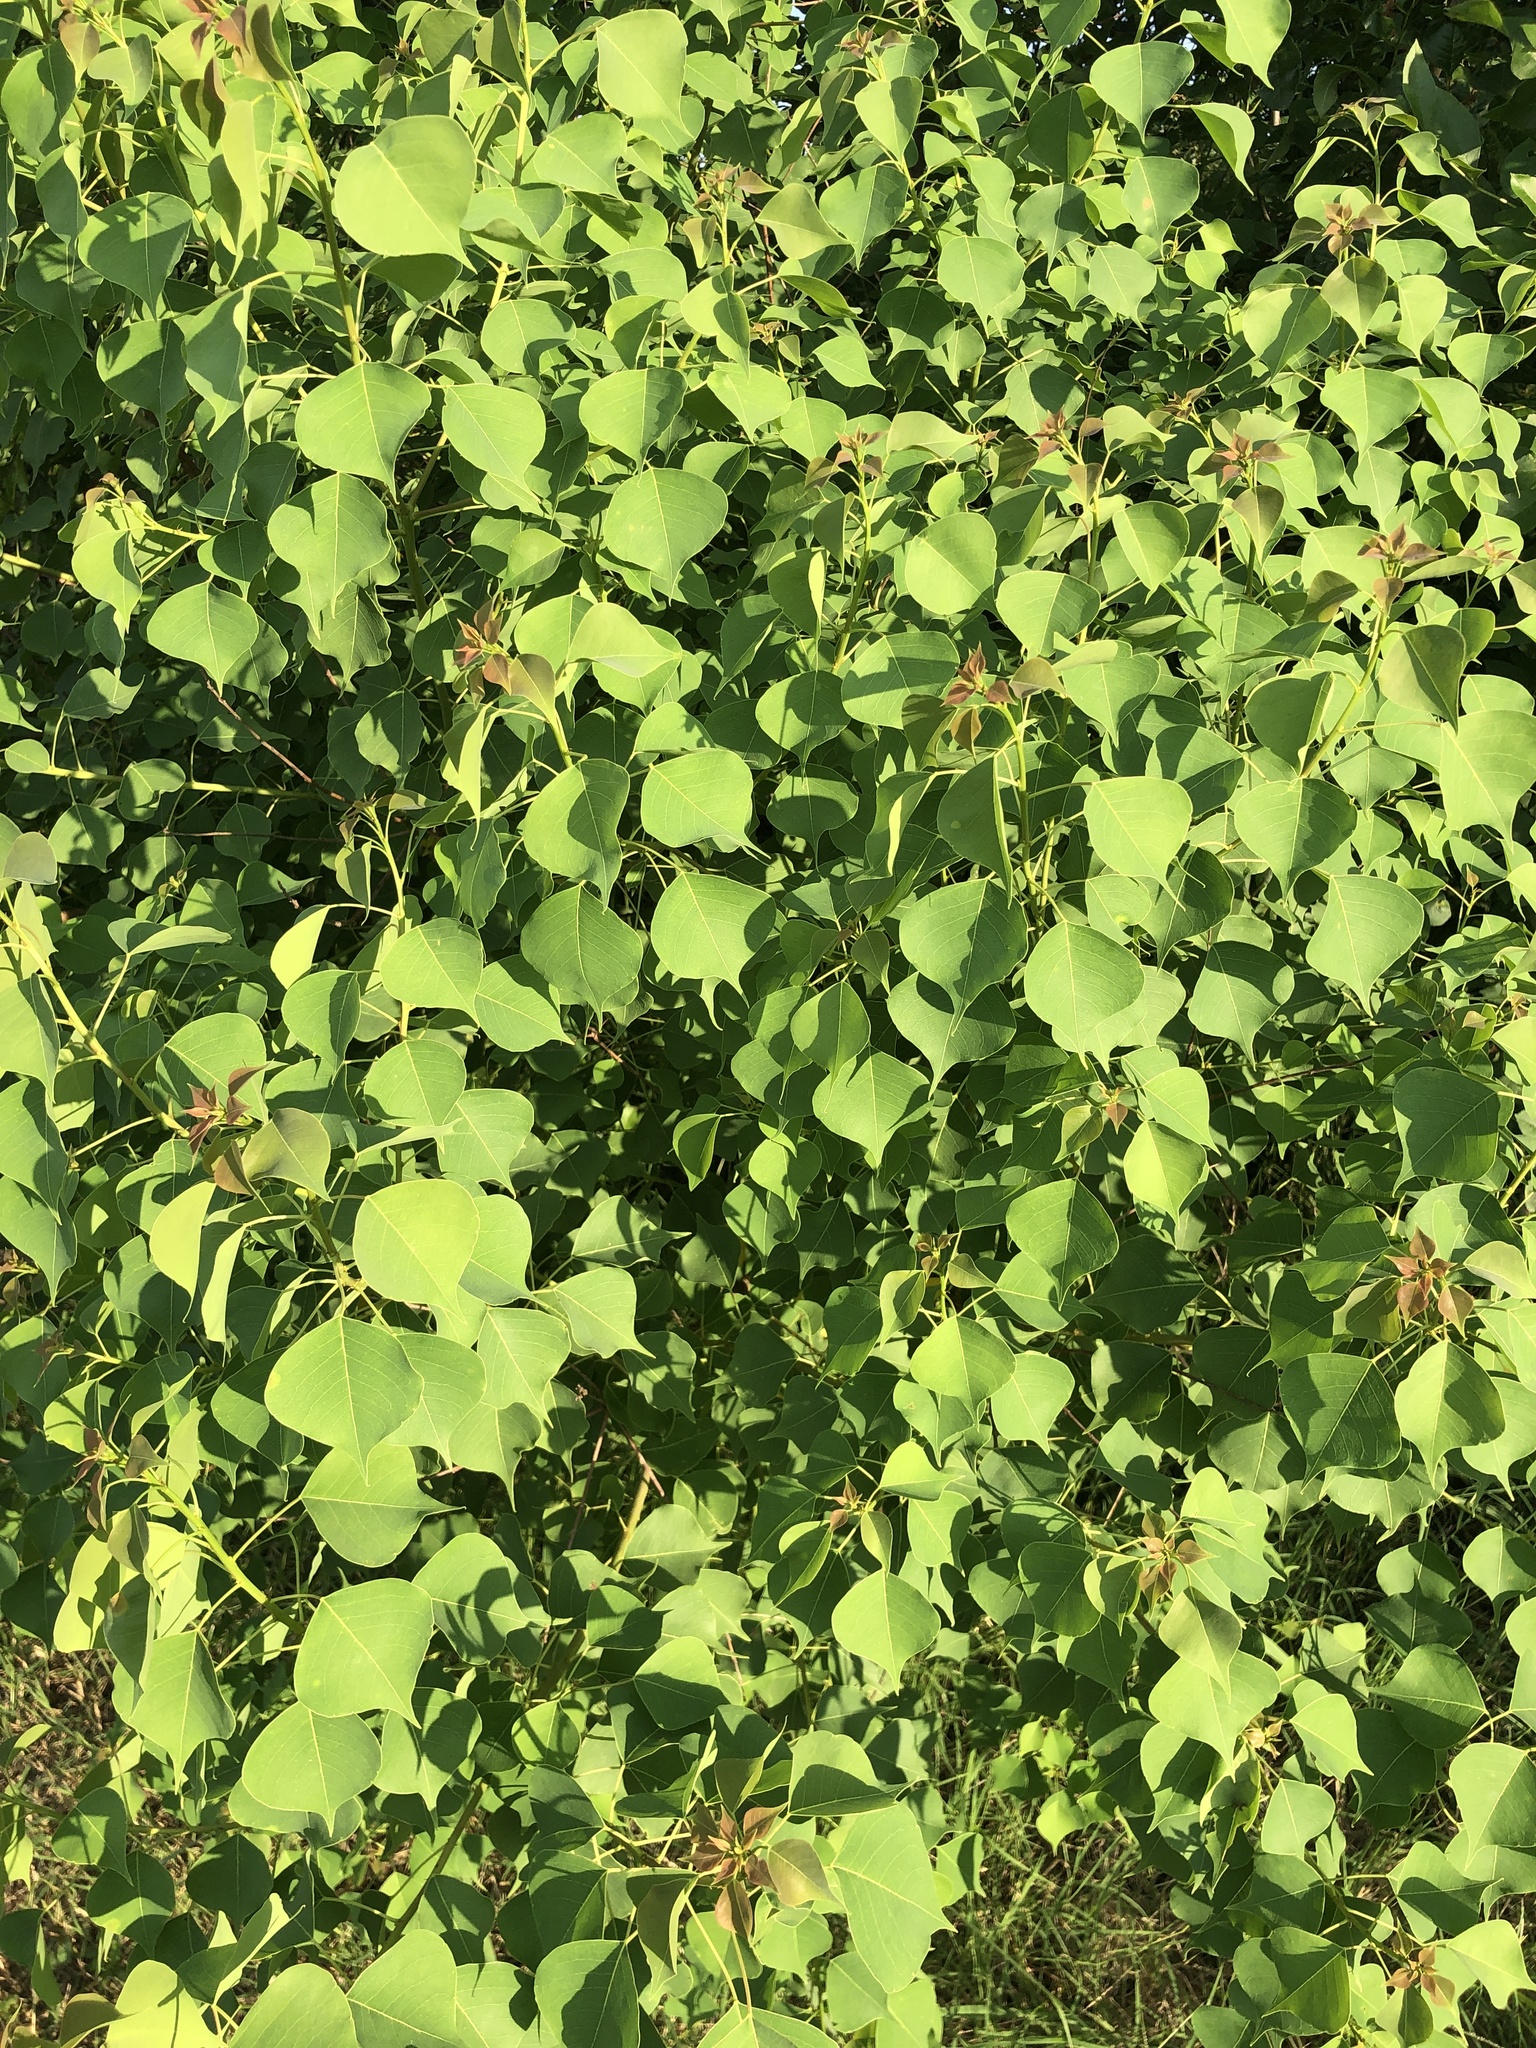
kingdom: Plantae
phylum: Tracheophyta
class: Magnoliopsida
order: Malpighiales
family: Euphorbiaceae
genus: Triadica
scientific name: Triadica sebifera
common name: Chinese tallow
